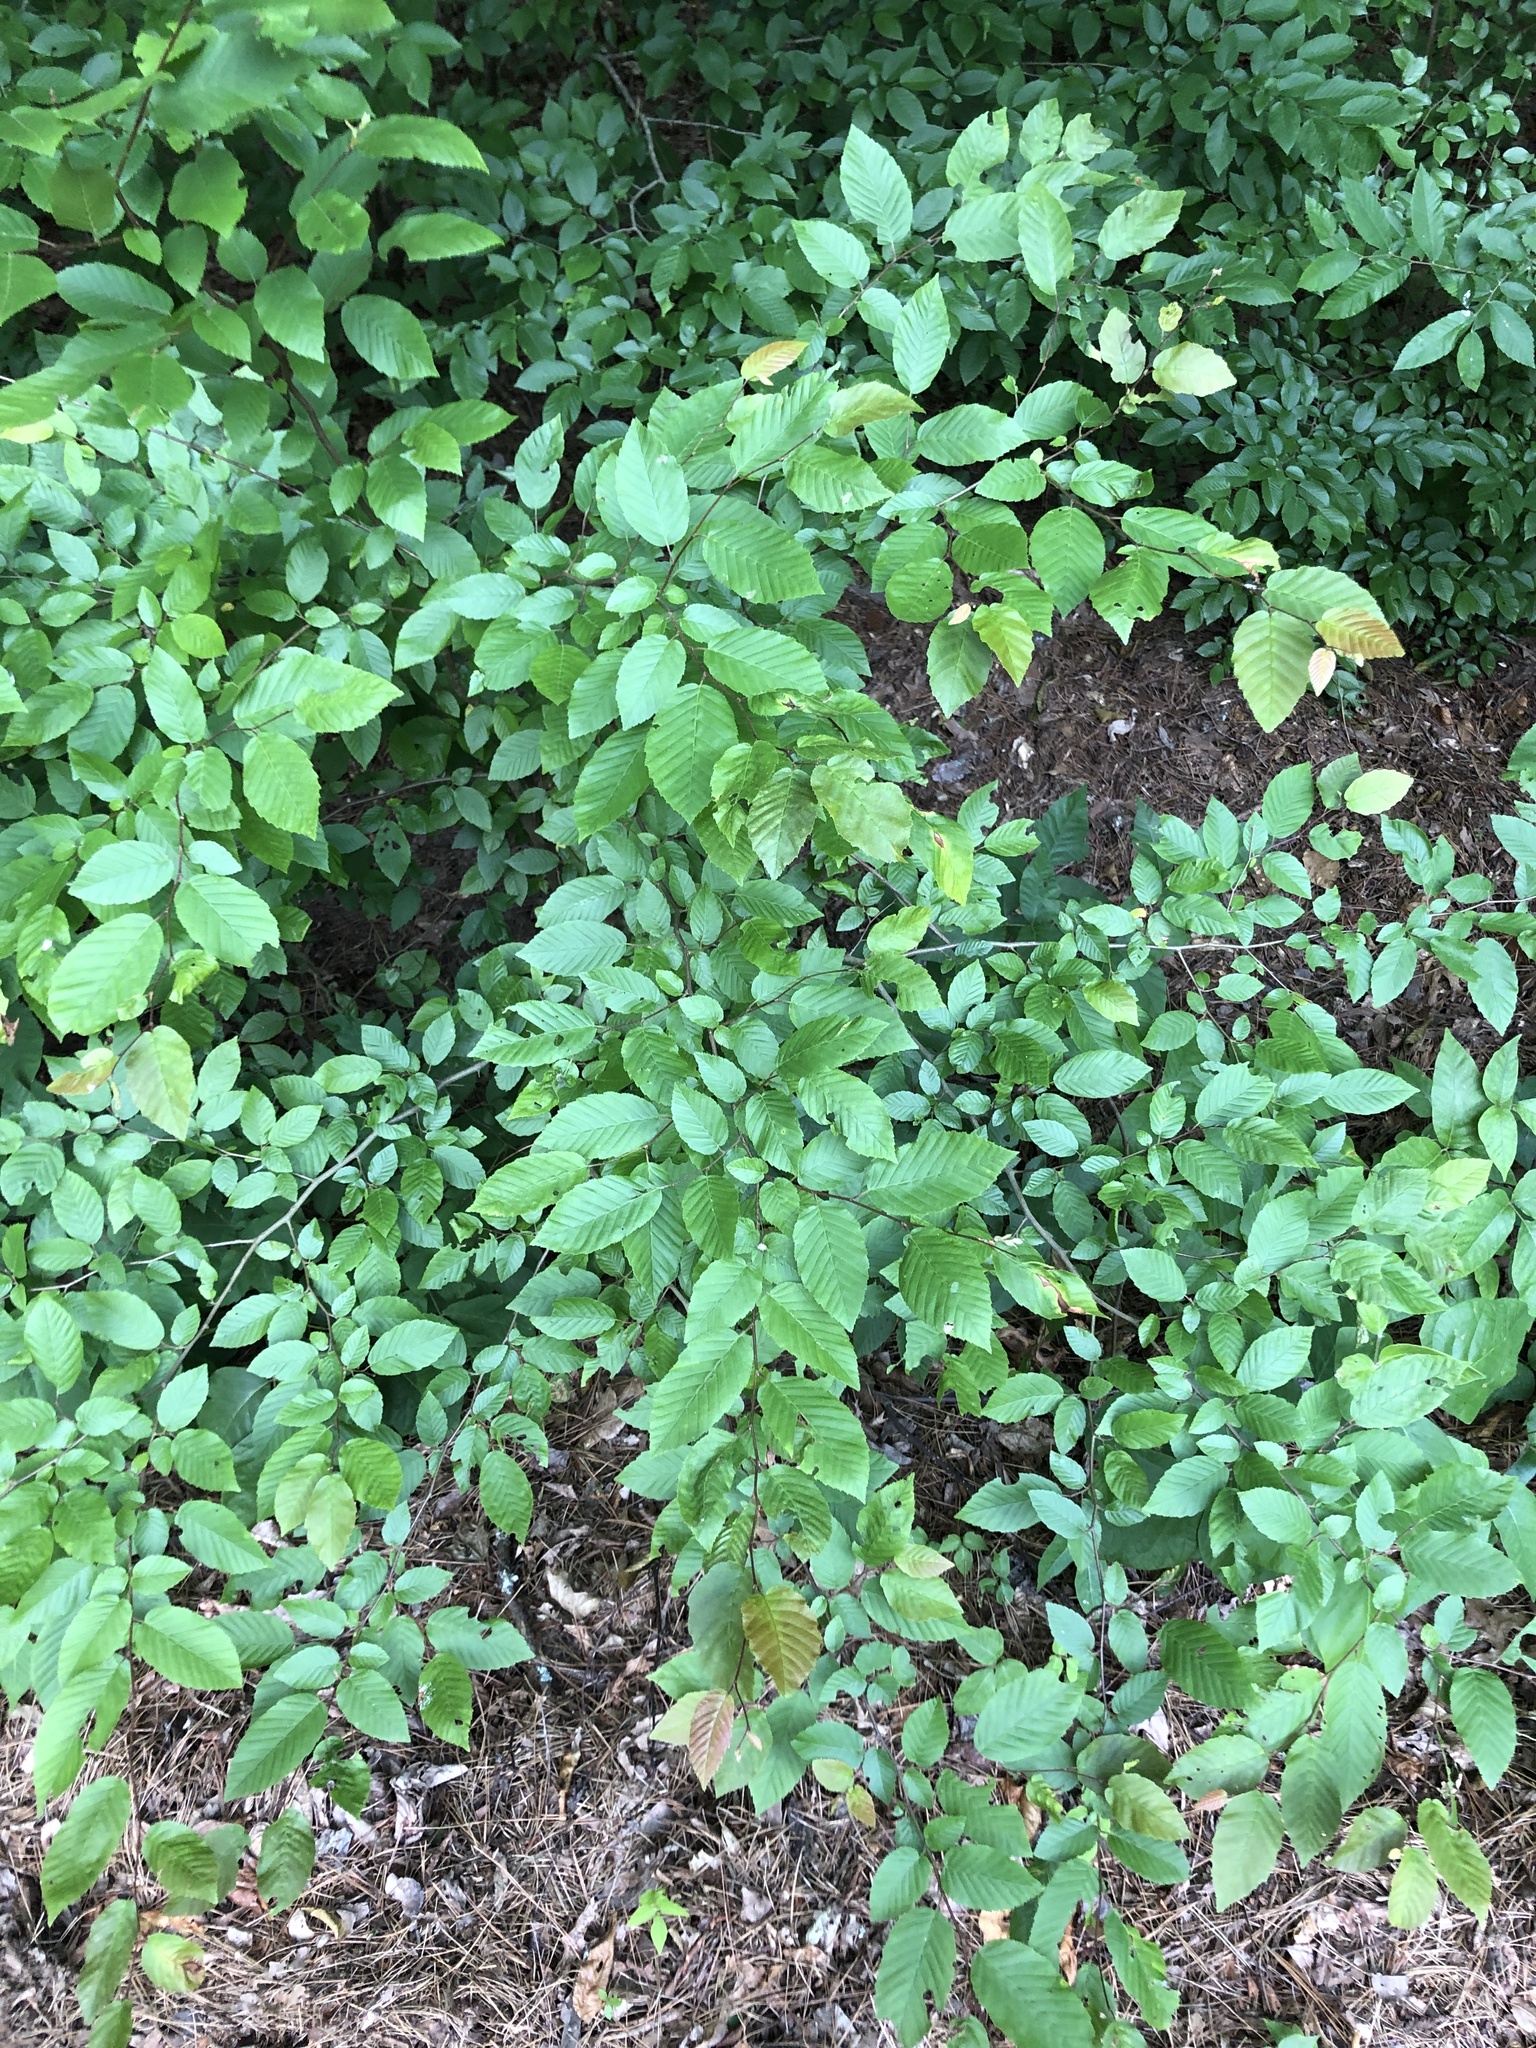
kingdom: Plantae
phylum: Tracheophyta
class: Magnoliopsida
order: Fagales
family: Betulaceae
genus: Carpinus
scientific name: Carpinus caroliniana
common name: American hornbeam
